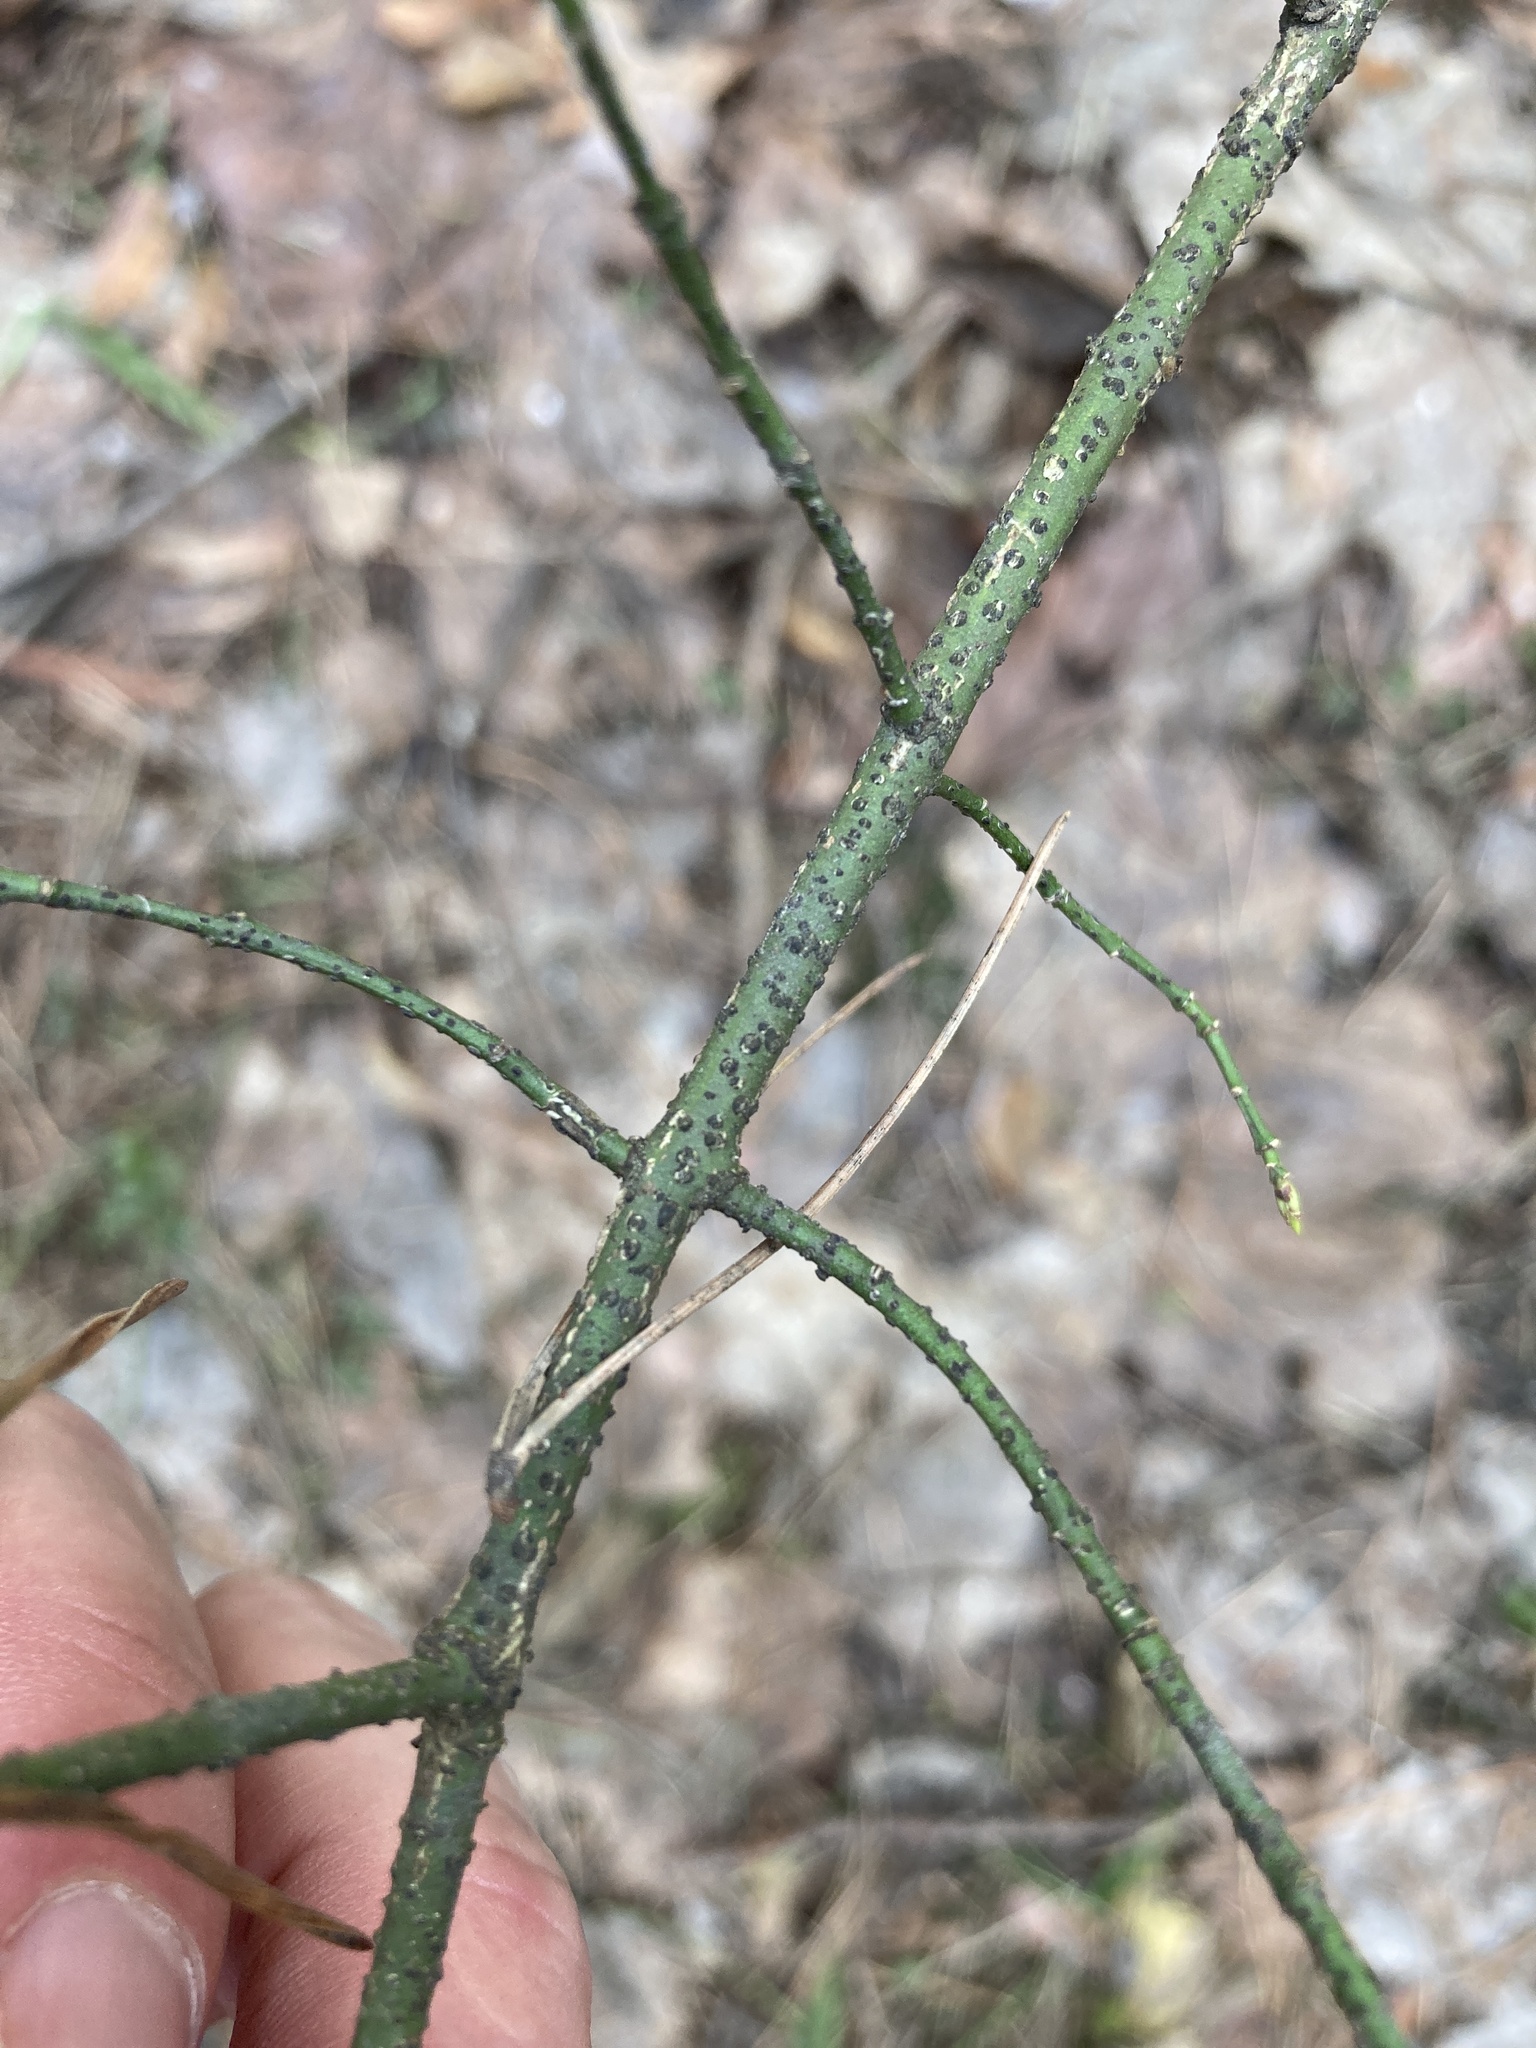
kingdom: Plantae
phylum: Tracheophyta
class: Magnoliopsida
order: Celastrales
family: Celastraceae
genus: Euonymus
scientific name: Euonymus verrucosus
